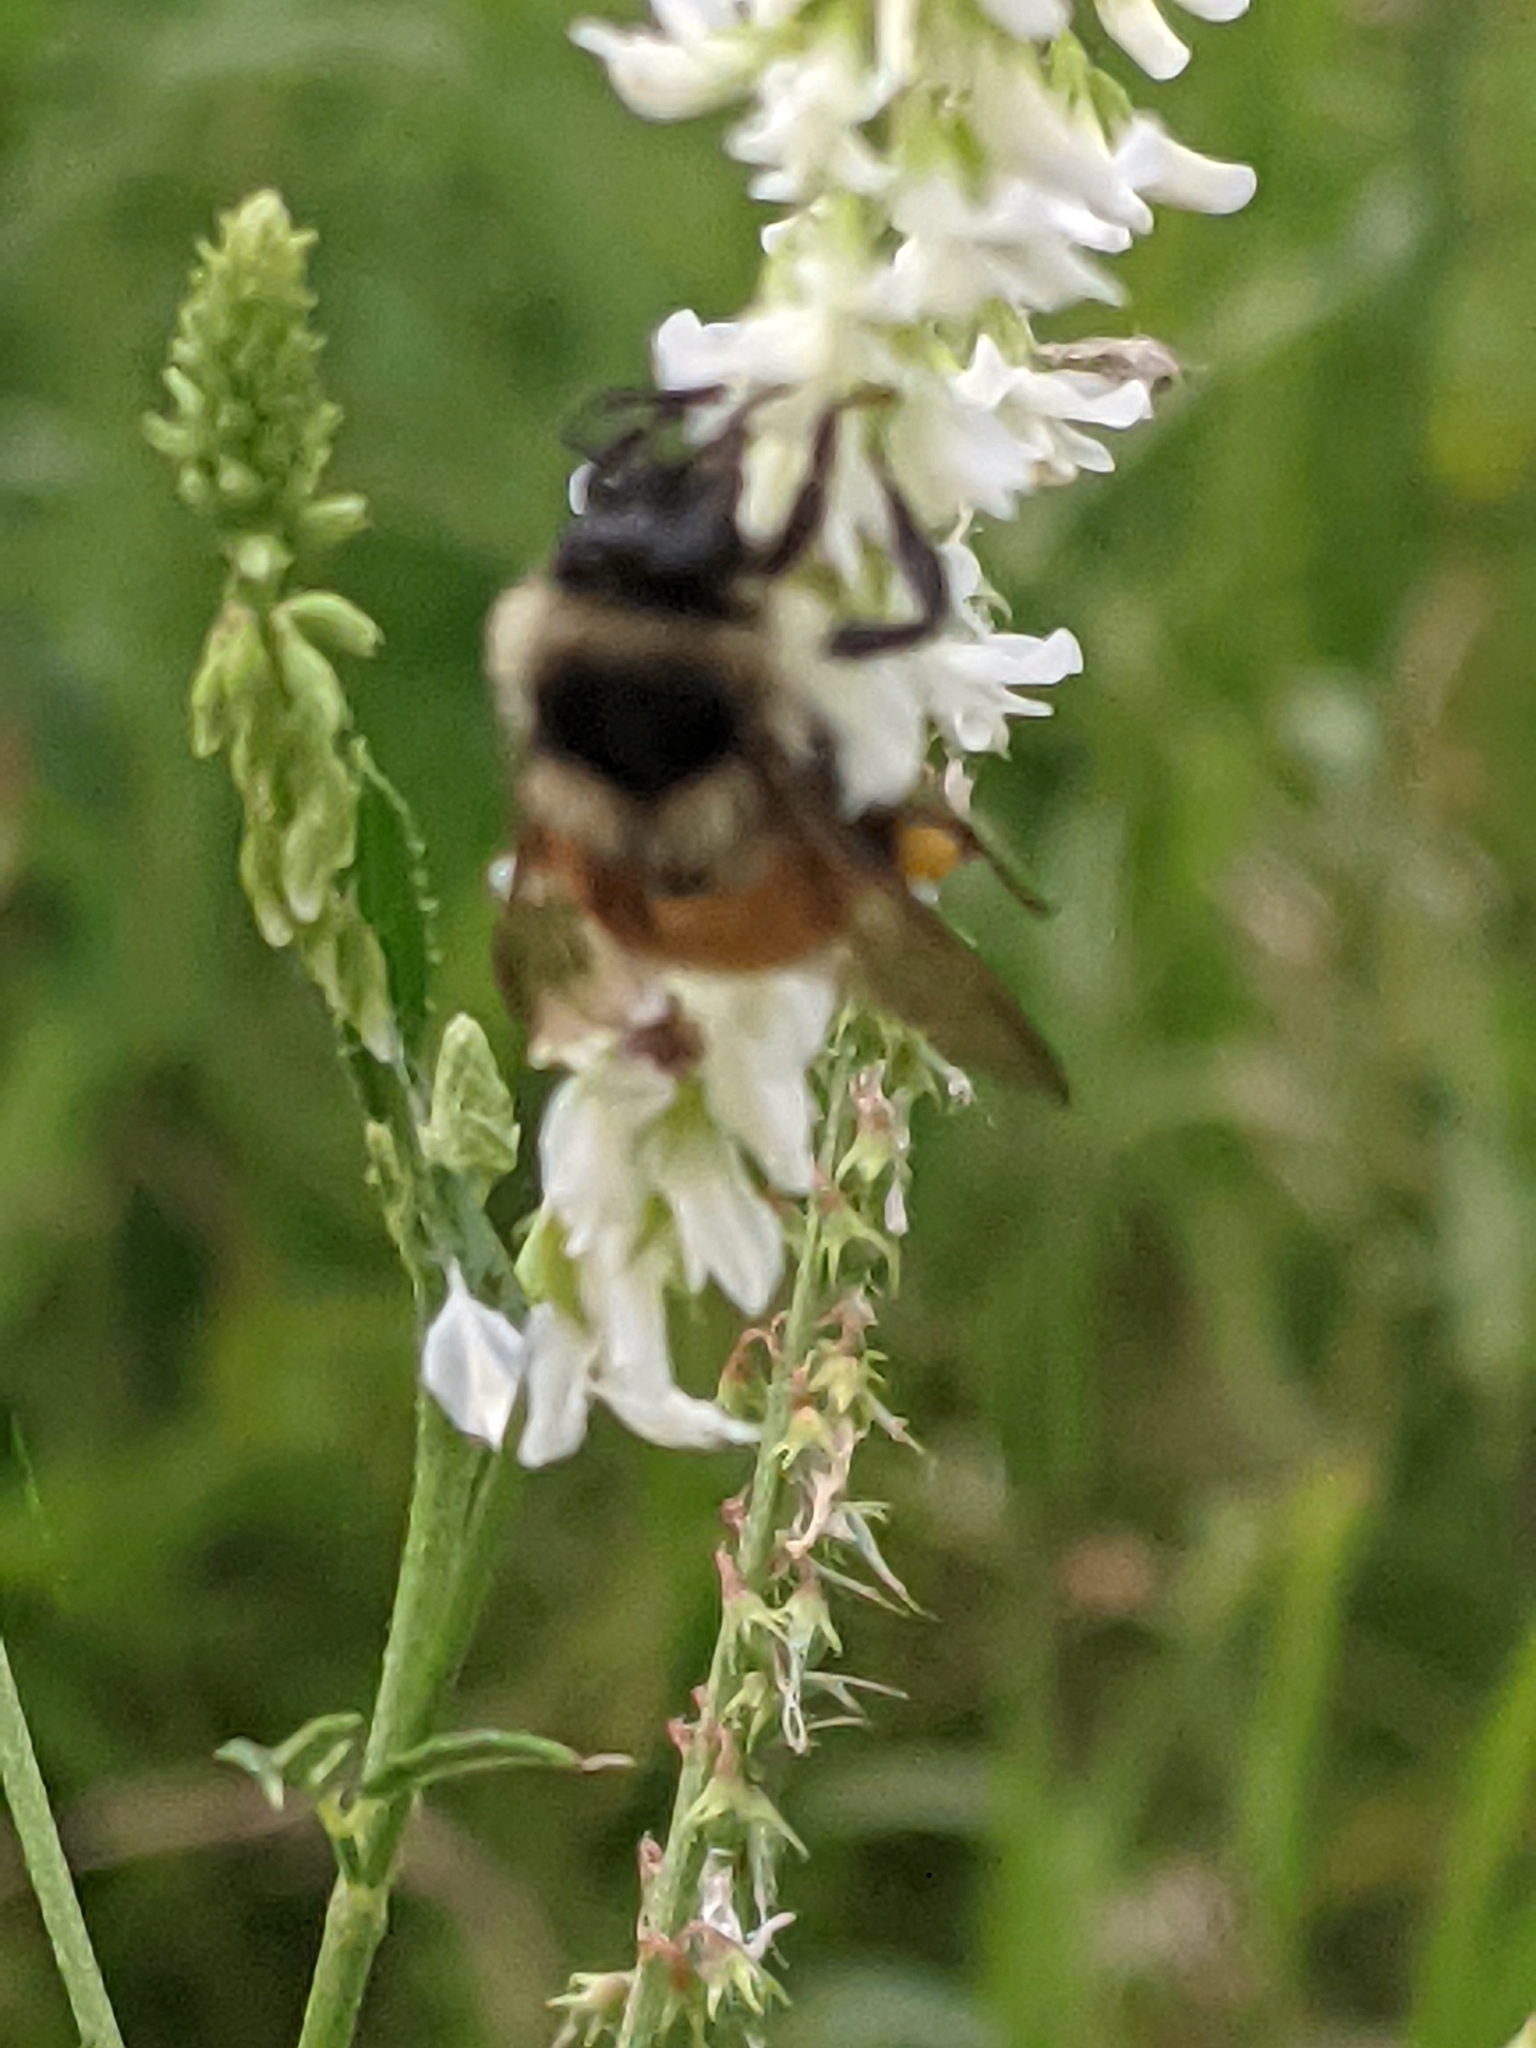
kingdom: Animalia
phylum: Arthropoda
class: Insecta
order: Hymenoptera
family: Apidae
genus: Bombus
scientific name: Bombus ternarius
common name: Tri-colored bumble bee
